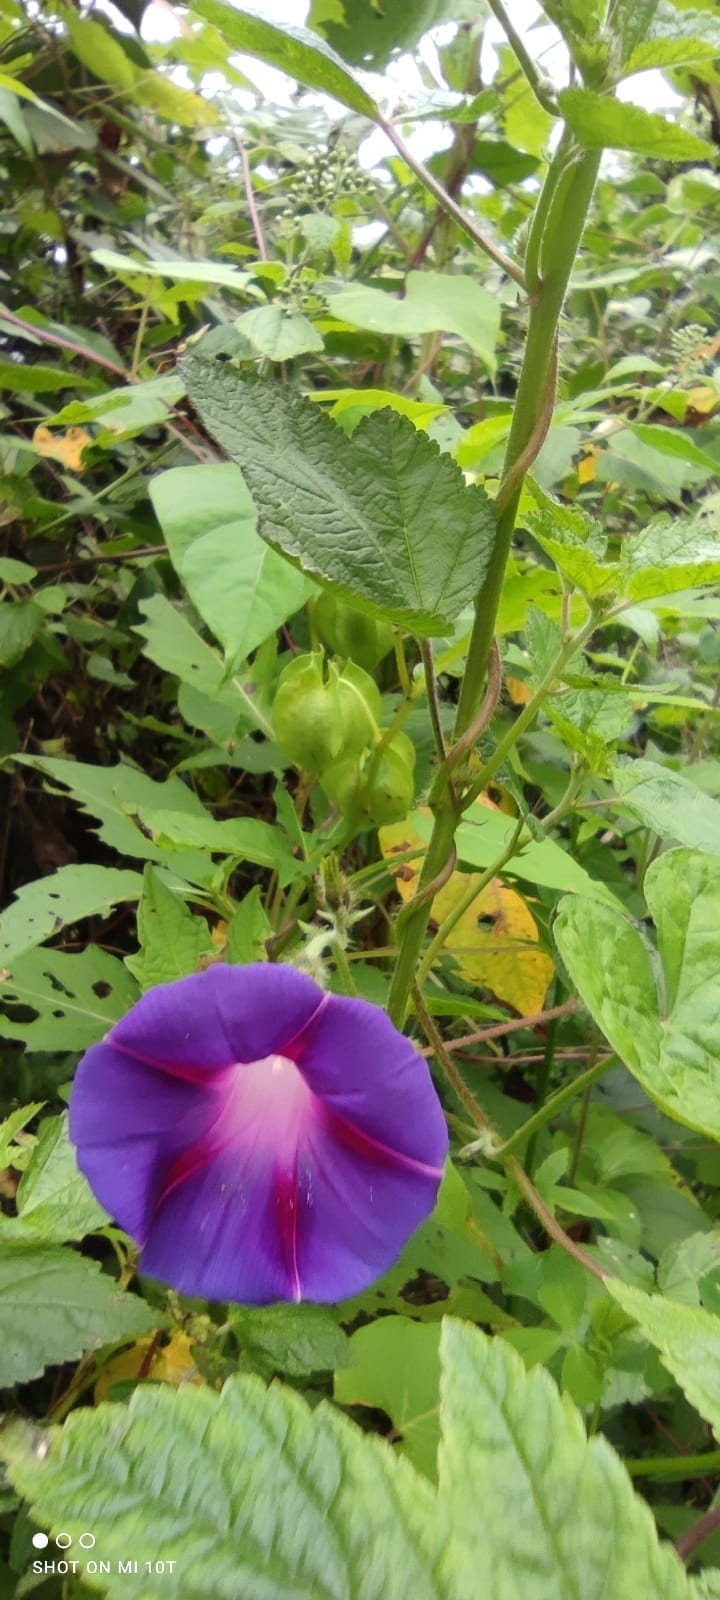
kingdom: Plantae
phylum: Tracheophyta
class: Magnoliopsida
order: Solanales
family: Convolvulaceae
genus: Ipomoea
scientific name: Ipomoea purpurea
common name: Common morning-glory
